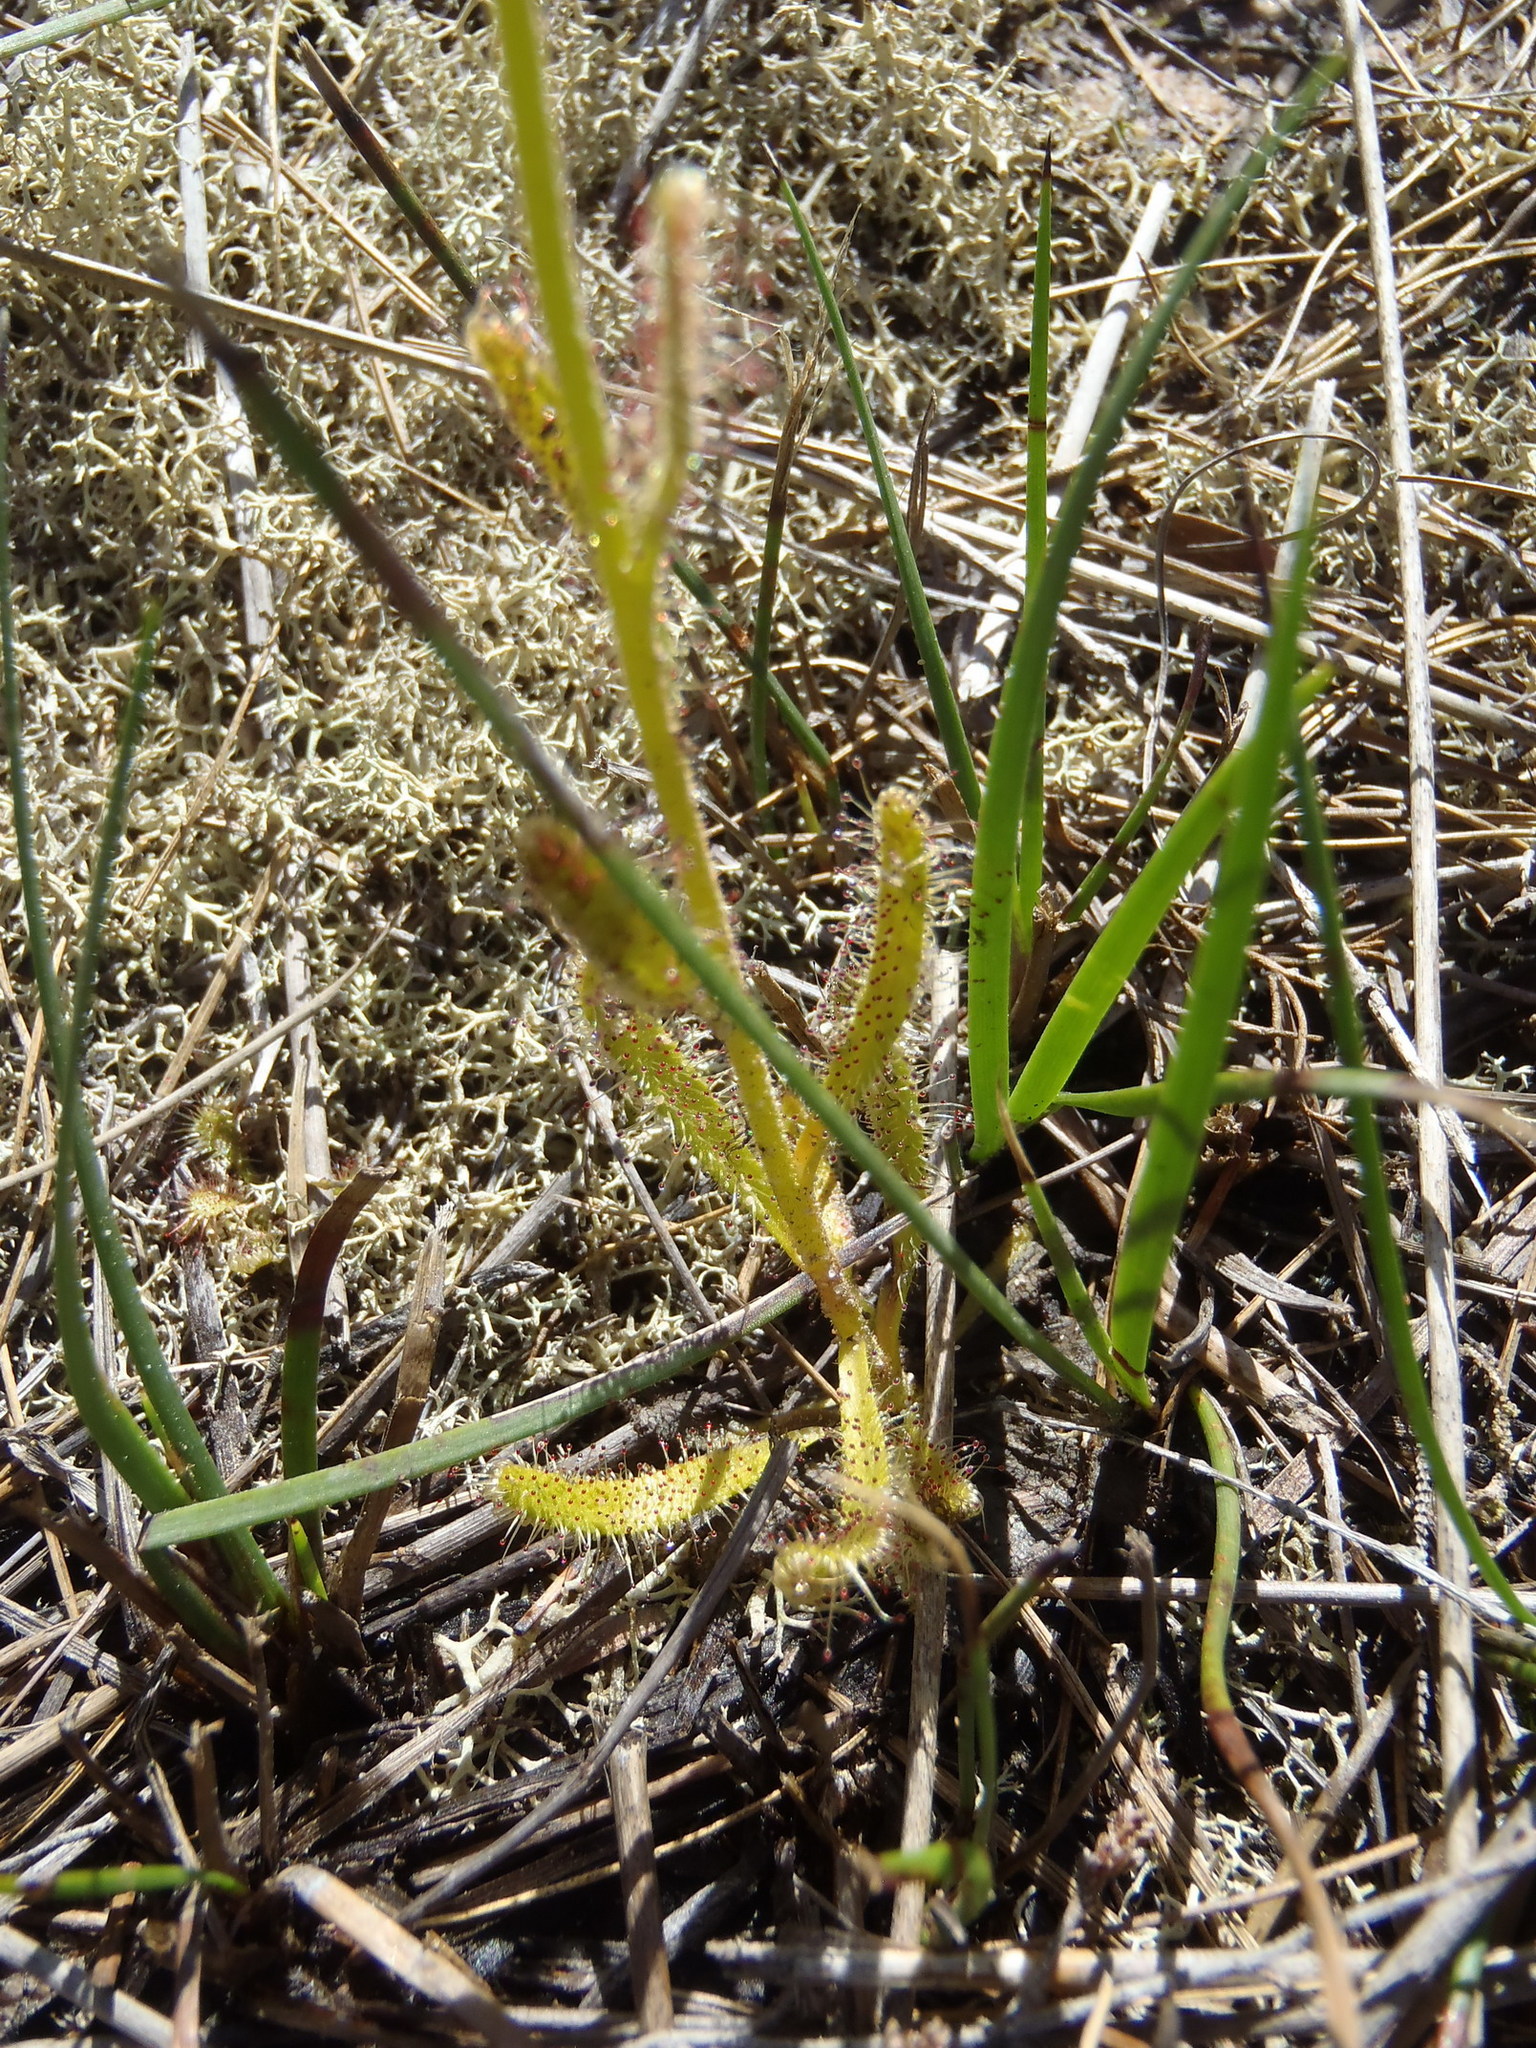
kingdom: Plantae
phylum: Tracheophyta
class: Magnoliopsida
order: Caryophyllales
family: Droseraceae
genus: Drosera
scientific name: Drosera cistiflora
